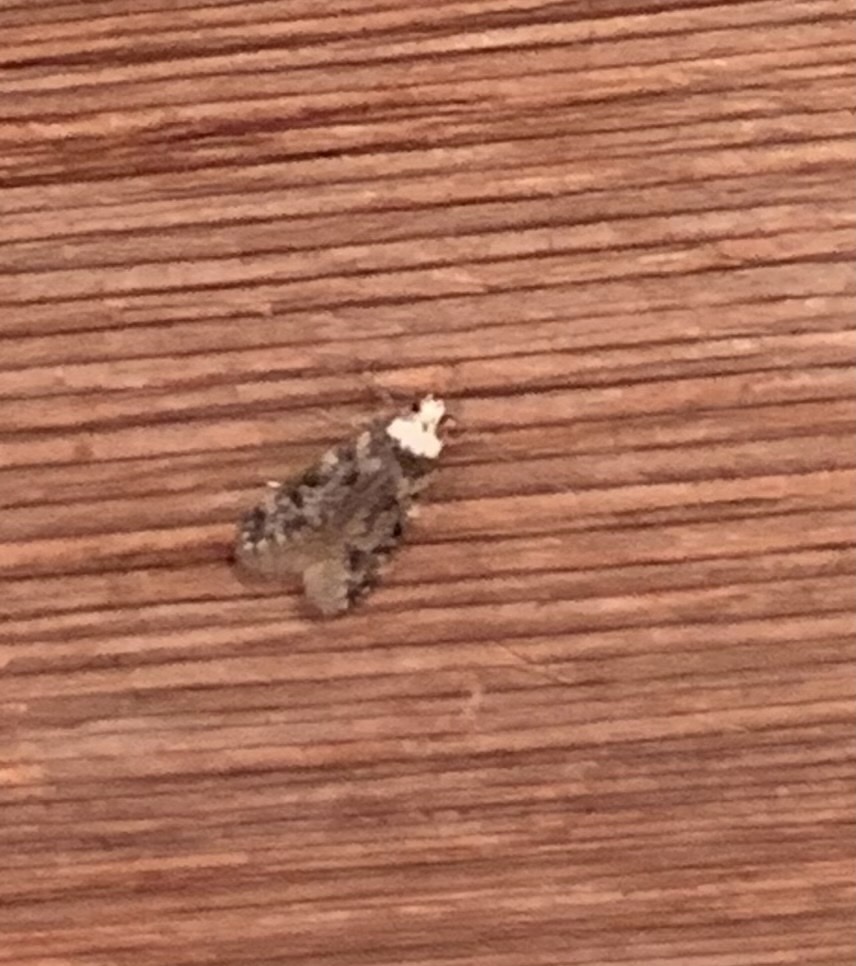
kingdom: Animalia
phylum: Arthropoda
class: Insecta
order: Lepidoptera
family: Oecophoridae
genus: Endrosis
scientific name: Endrosis sarcitrella
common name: White-shouldered house moth
